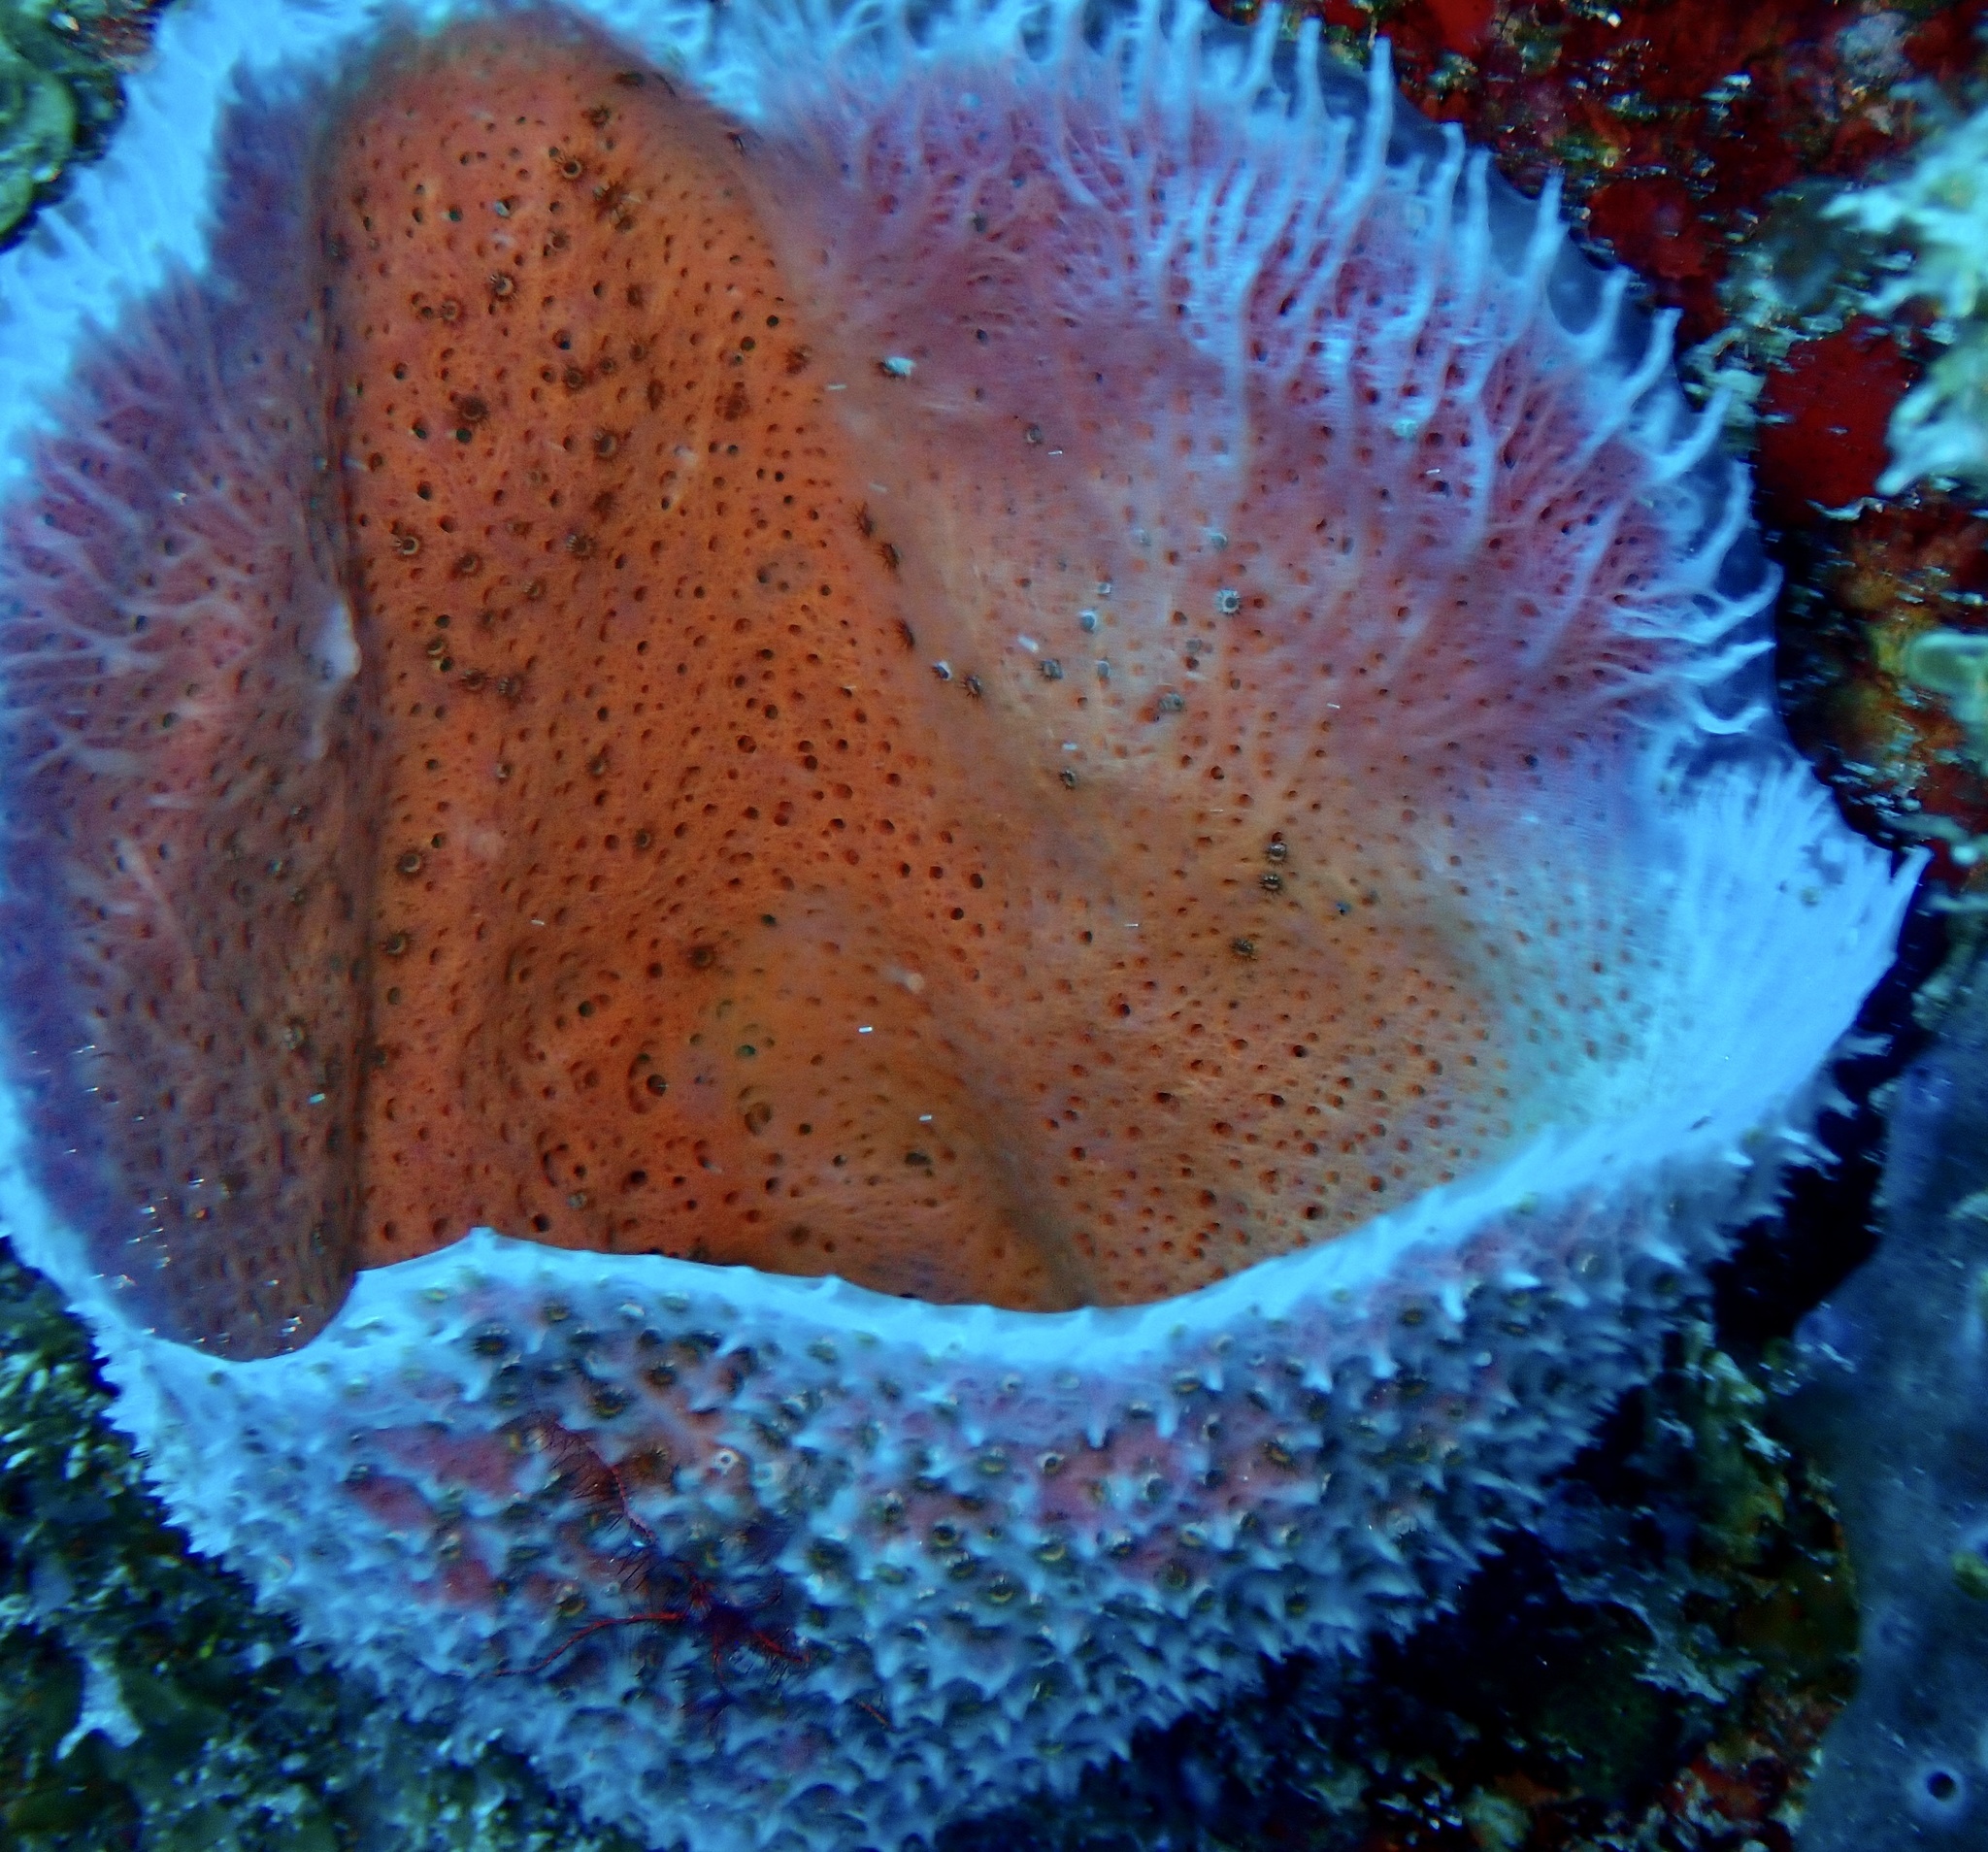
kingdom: Animalia
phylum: Porifera
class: Demospongiae
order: Haplosclerida
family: Niphatidae
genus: Niphates
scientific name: Niphates digitalis
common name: Pink vase sponge
